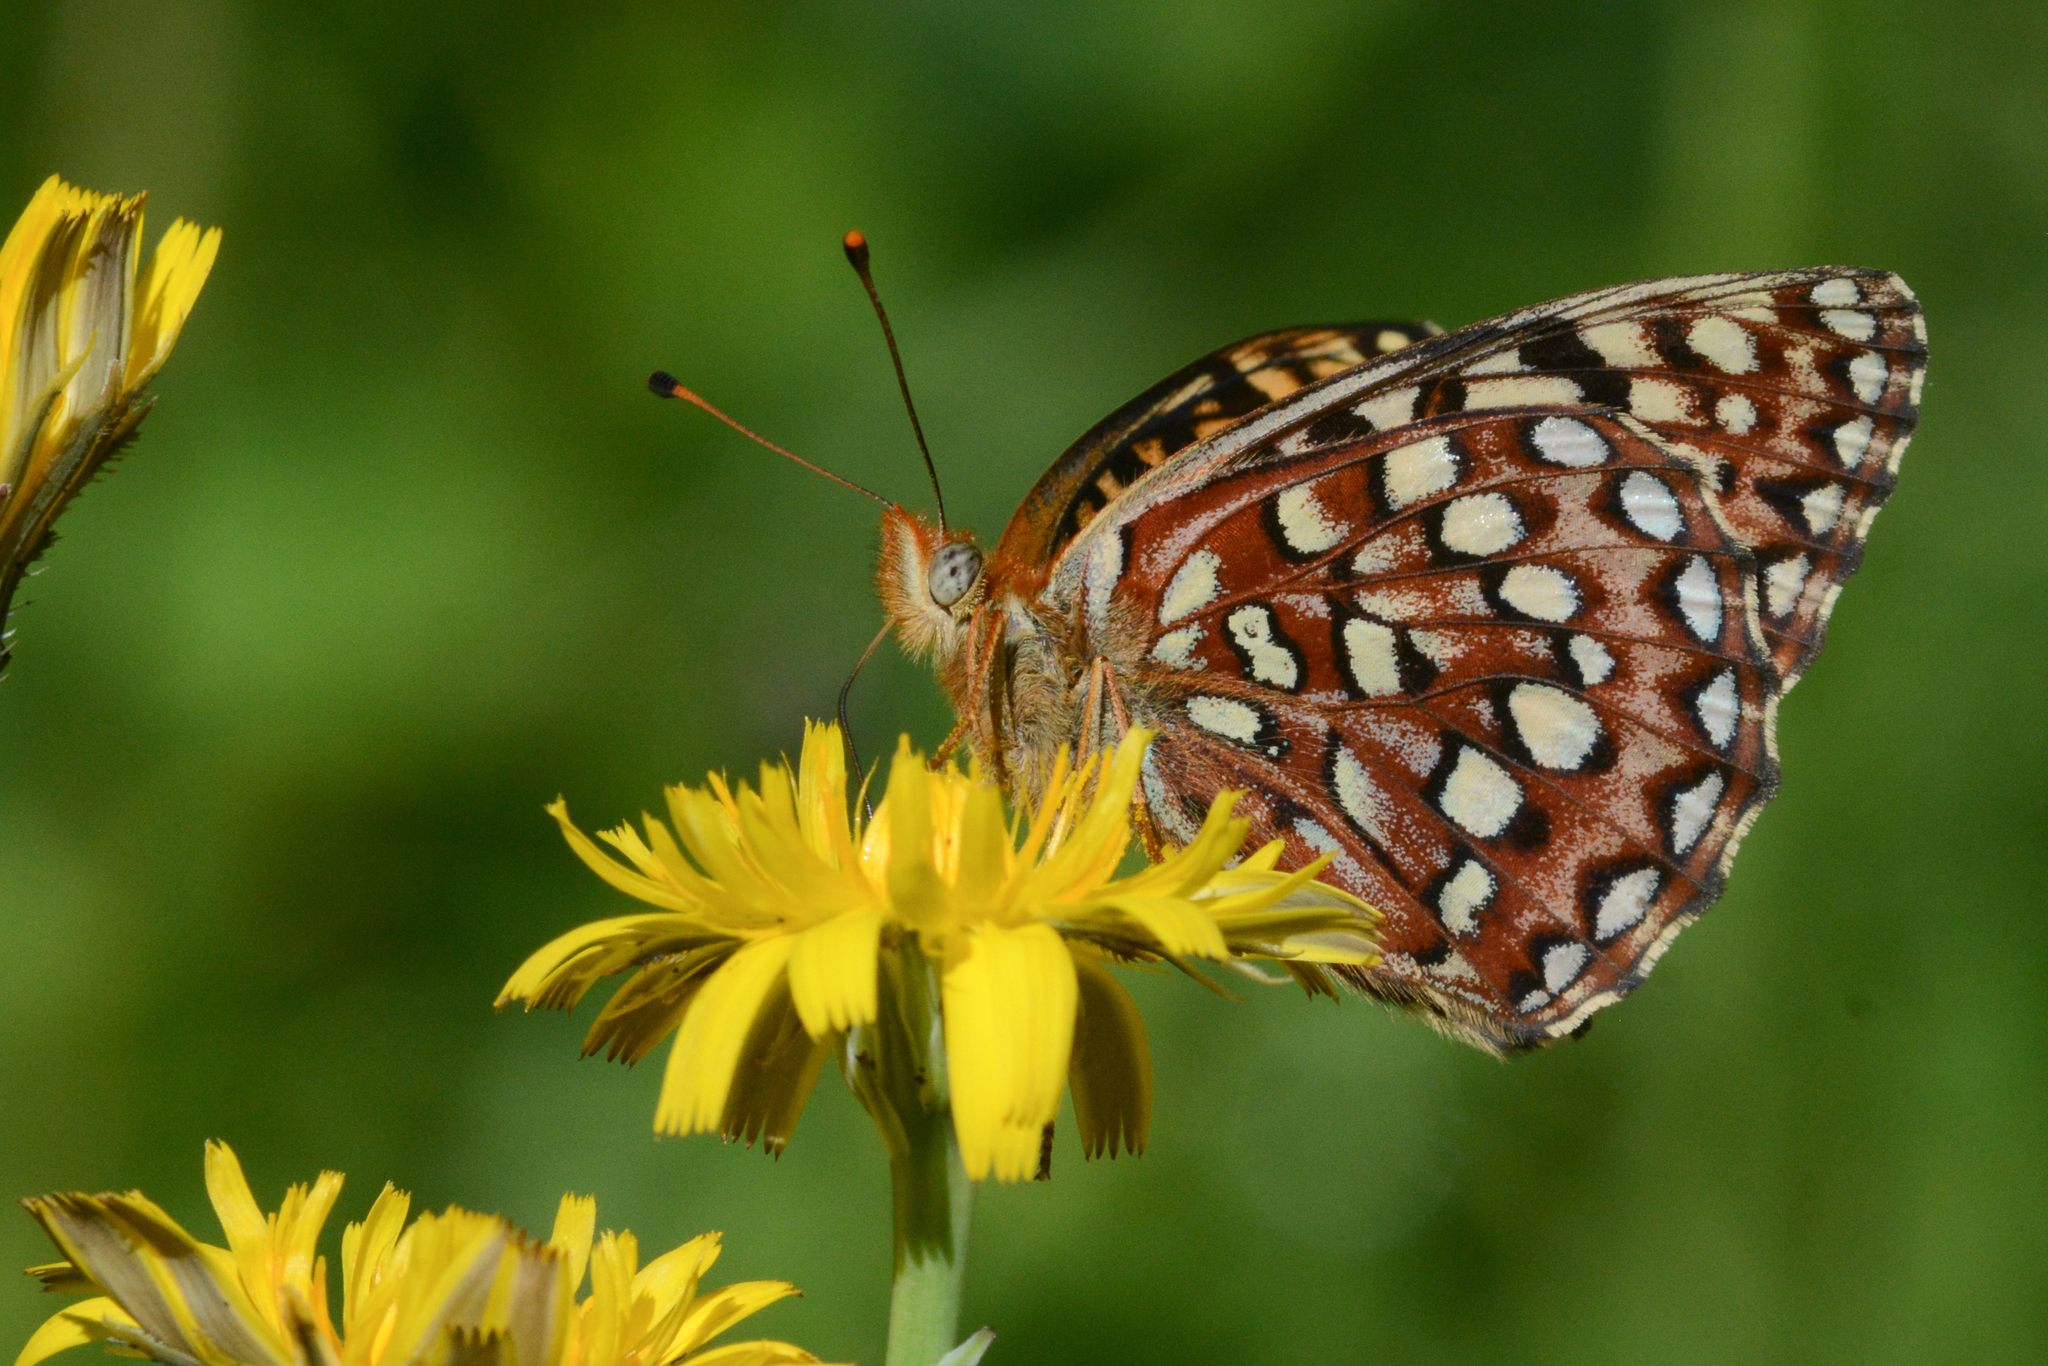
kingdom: Animalia
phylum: Arthropoda
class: Insecta
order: Lepidoptera
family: Nymphalidae
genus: Speyeria
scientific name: Speyeria hydaspe
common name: Hydaspe fritillary
